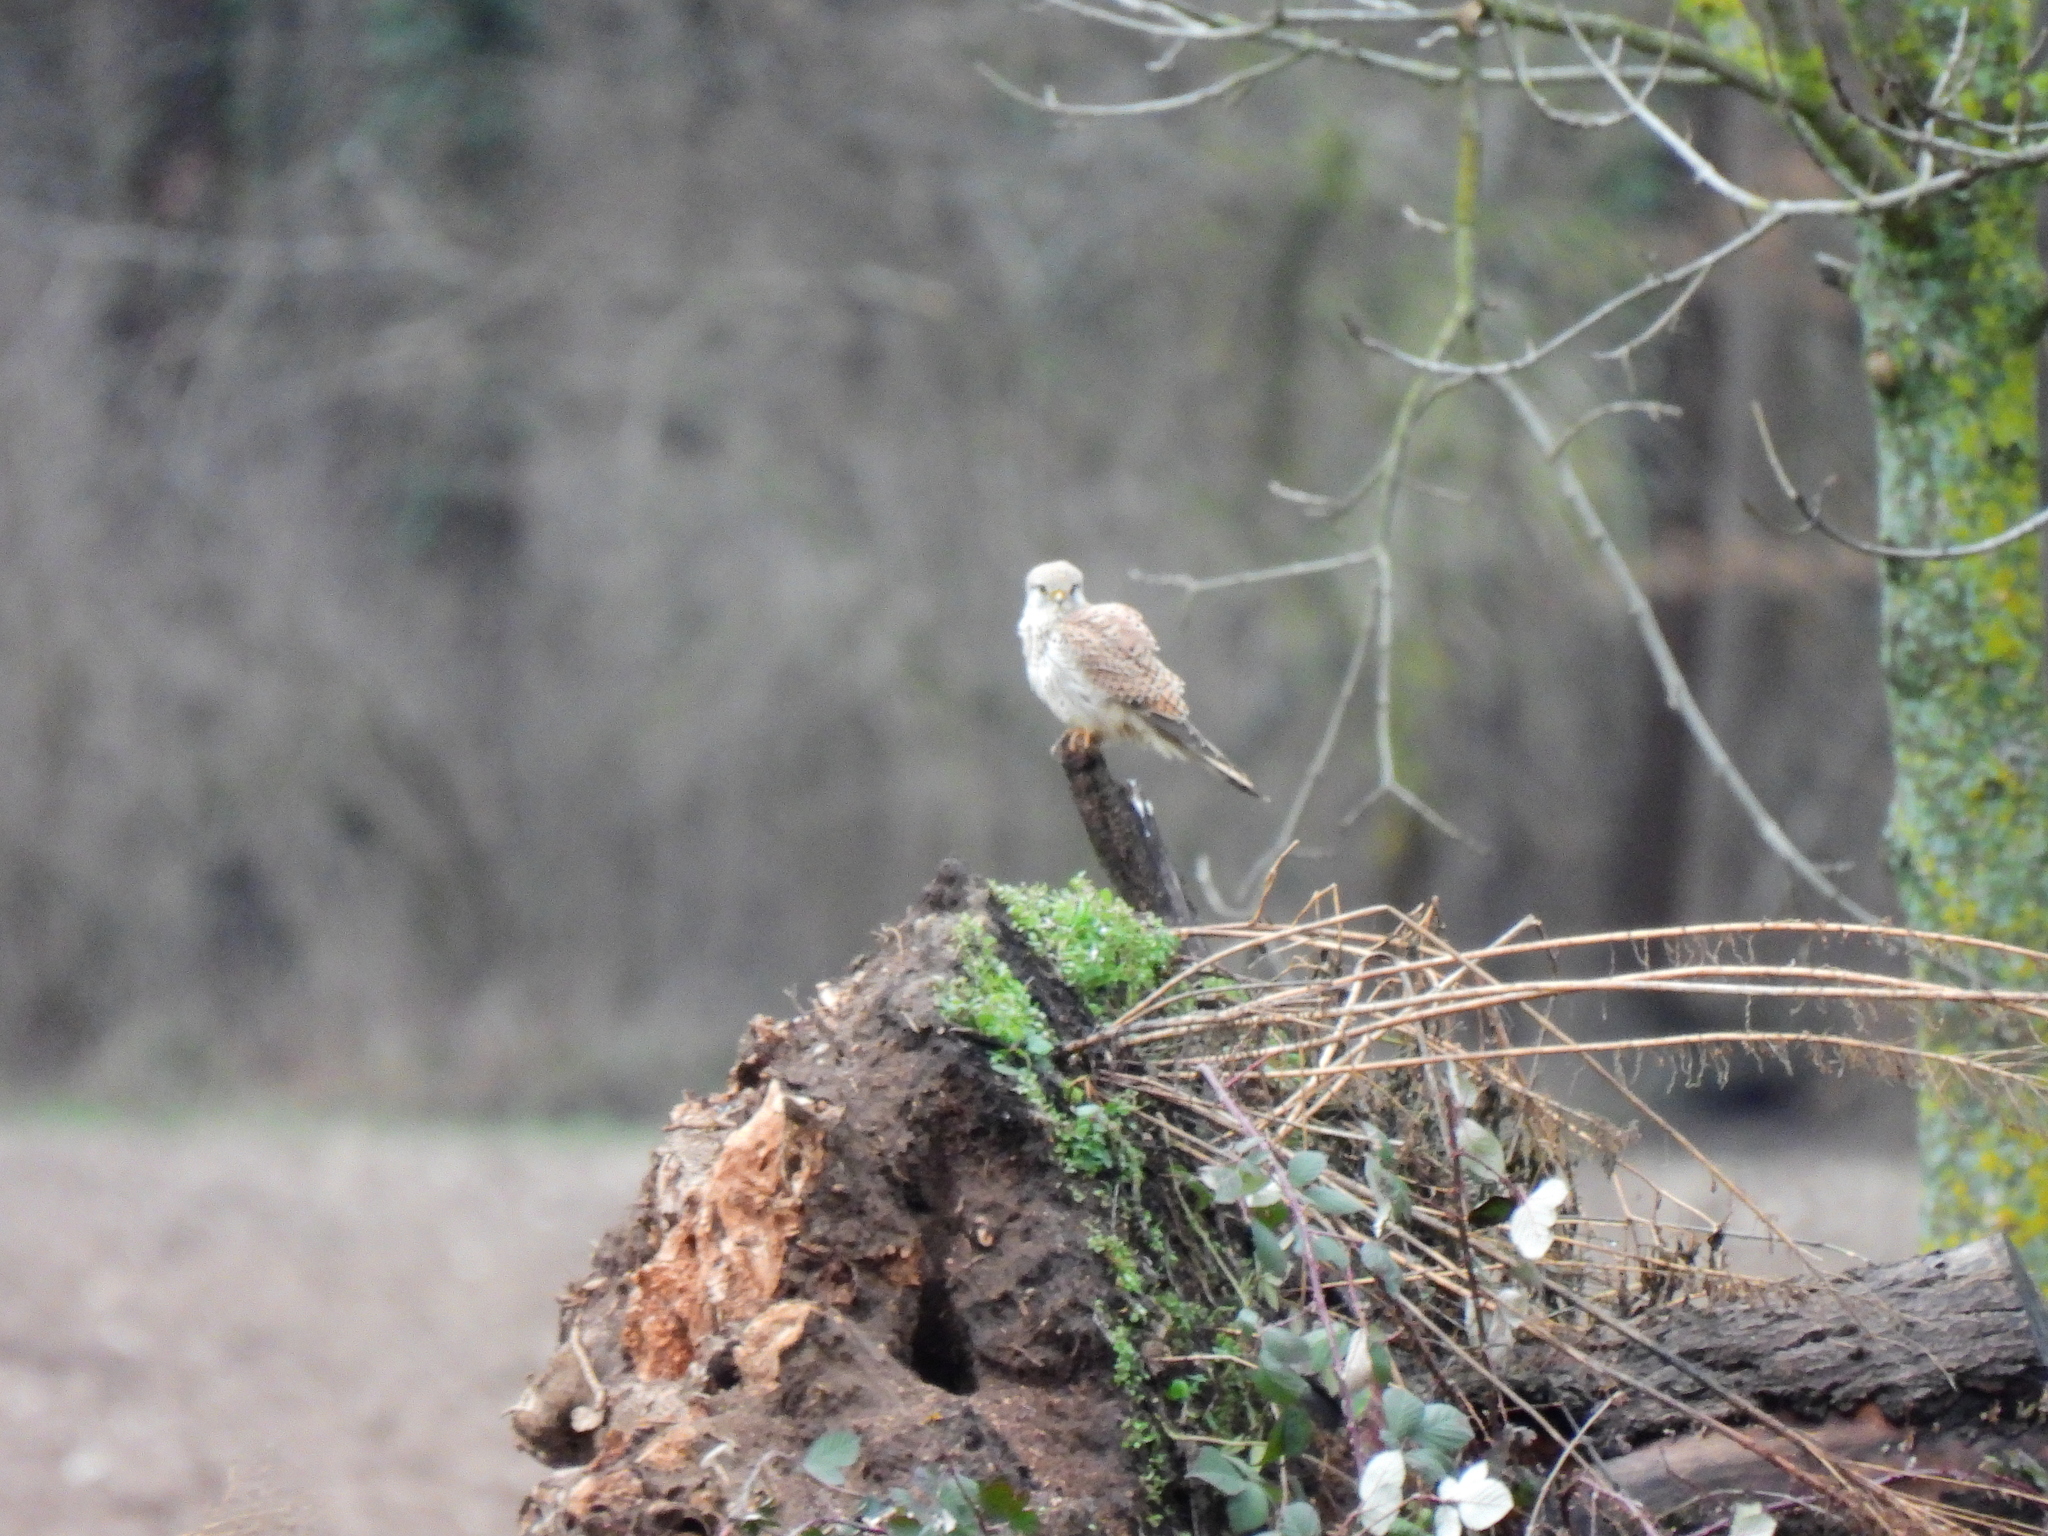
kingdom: Animalia
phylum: Chordata
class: Aves
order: Falconiformes
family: Falconidae
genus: Falco
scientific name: Falco tinnunculus
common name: Common kestrel
